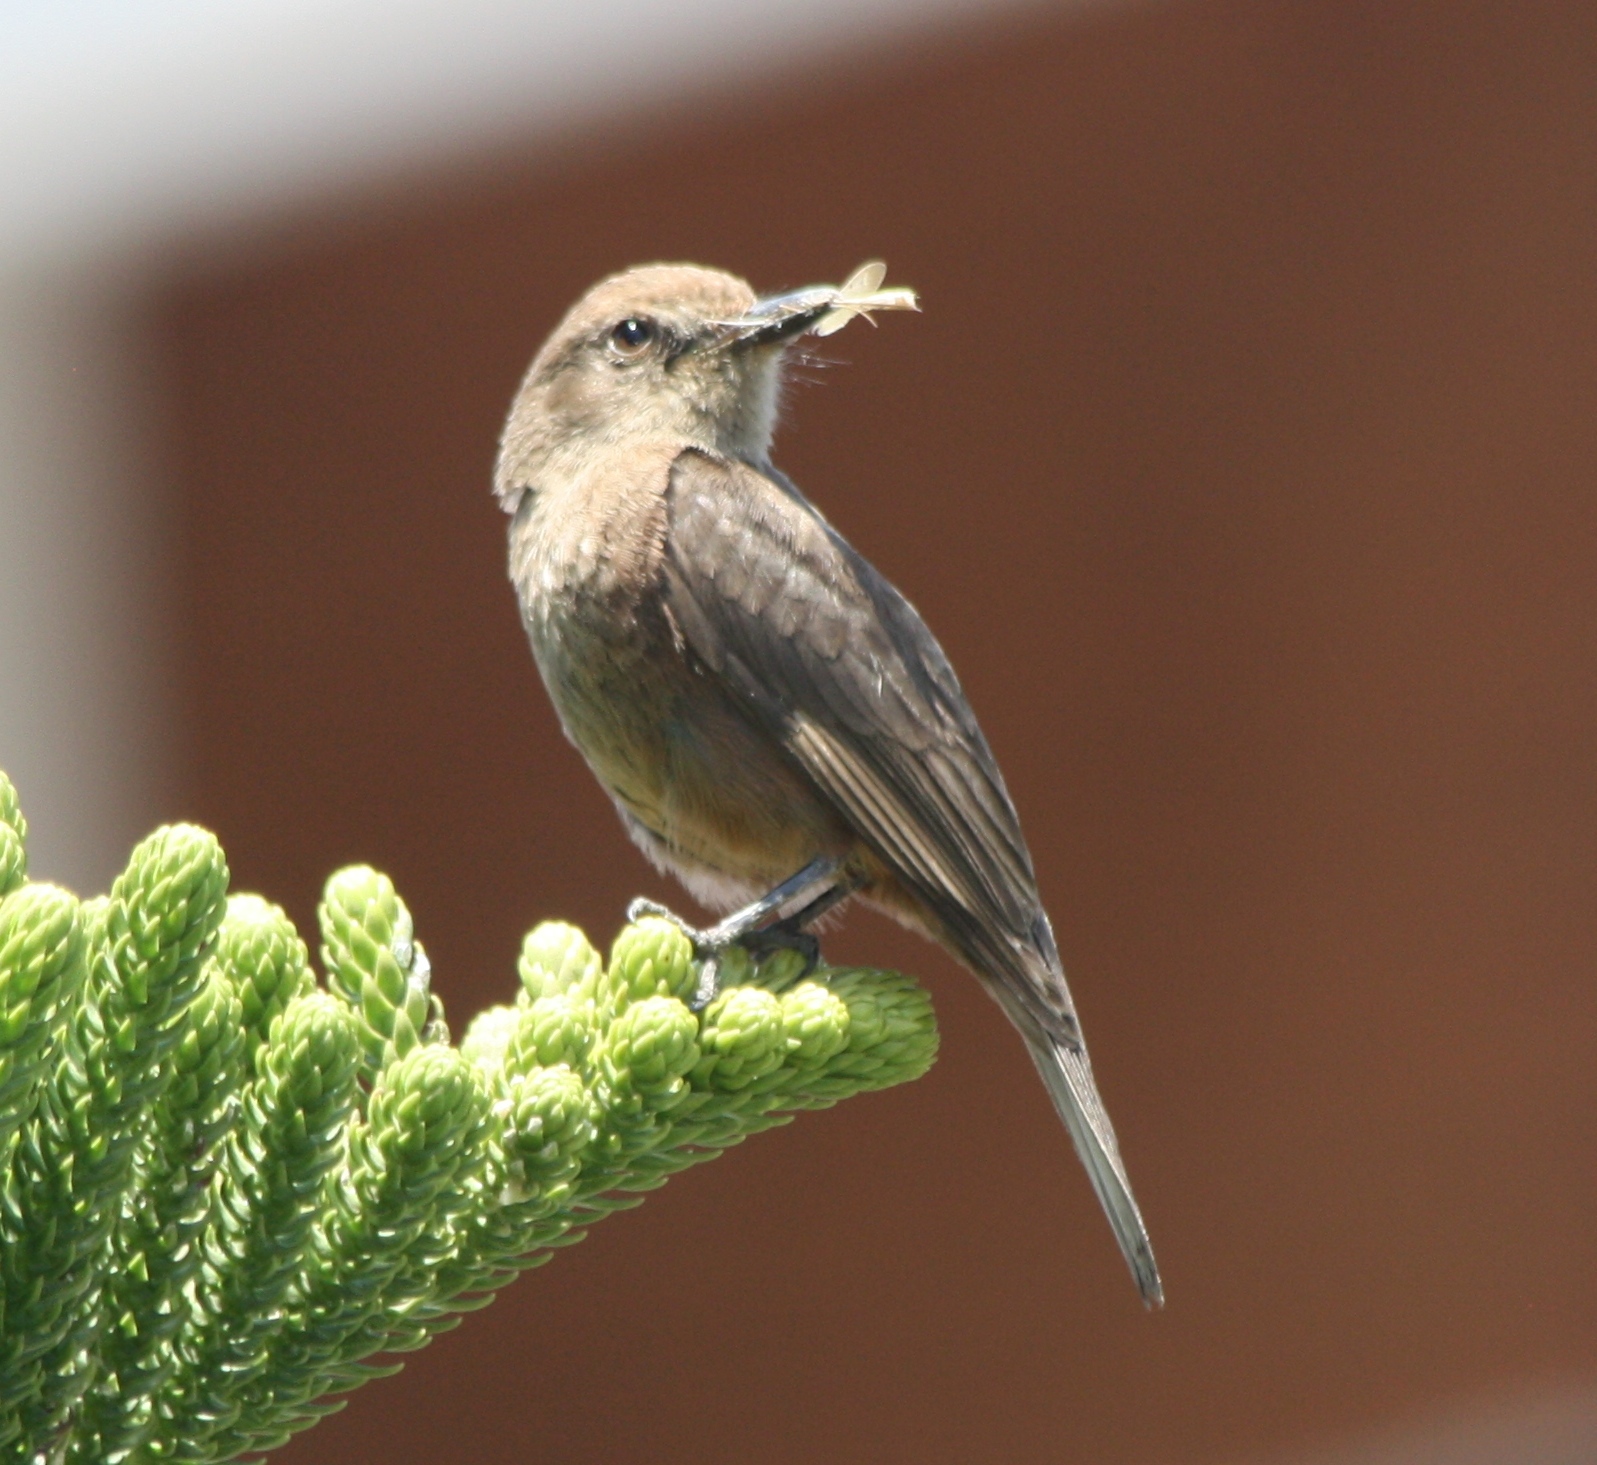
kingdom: Animalia
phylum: Chordata
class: Aves
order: Passeriformes
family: Tyrannidae
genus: Pyrocephalus
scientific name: Pyrocephalus rubinus
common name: Vermilion flycatcher
